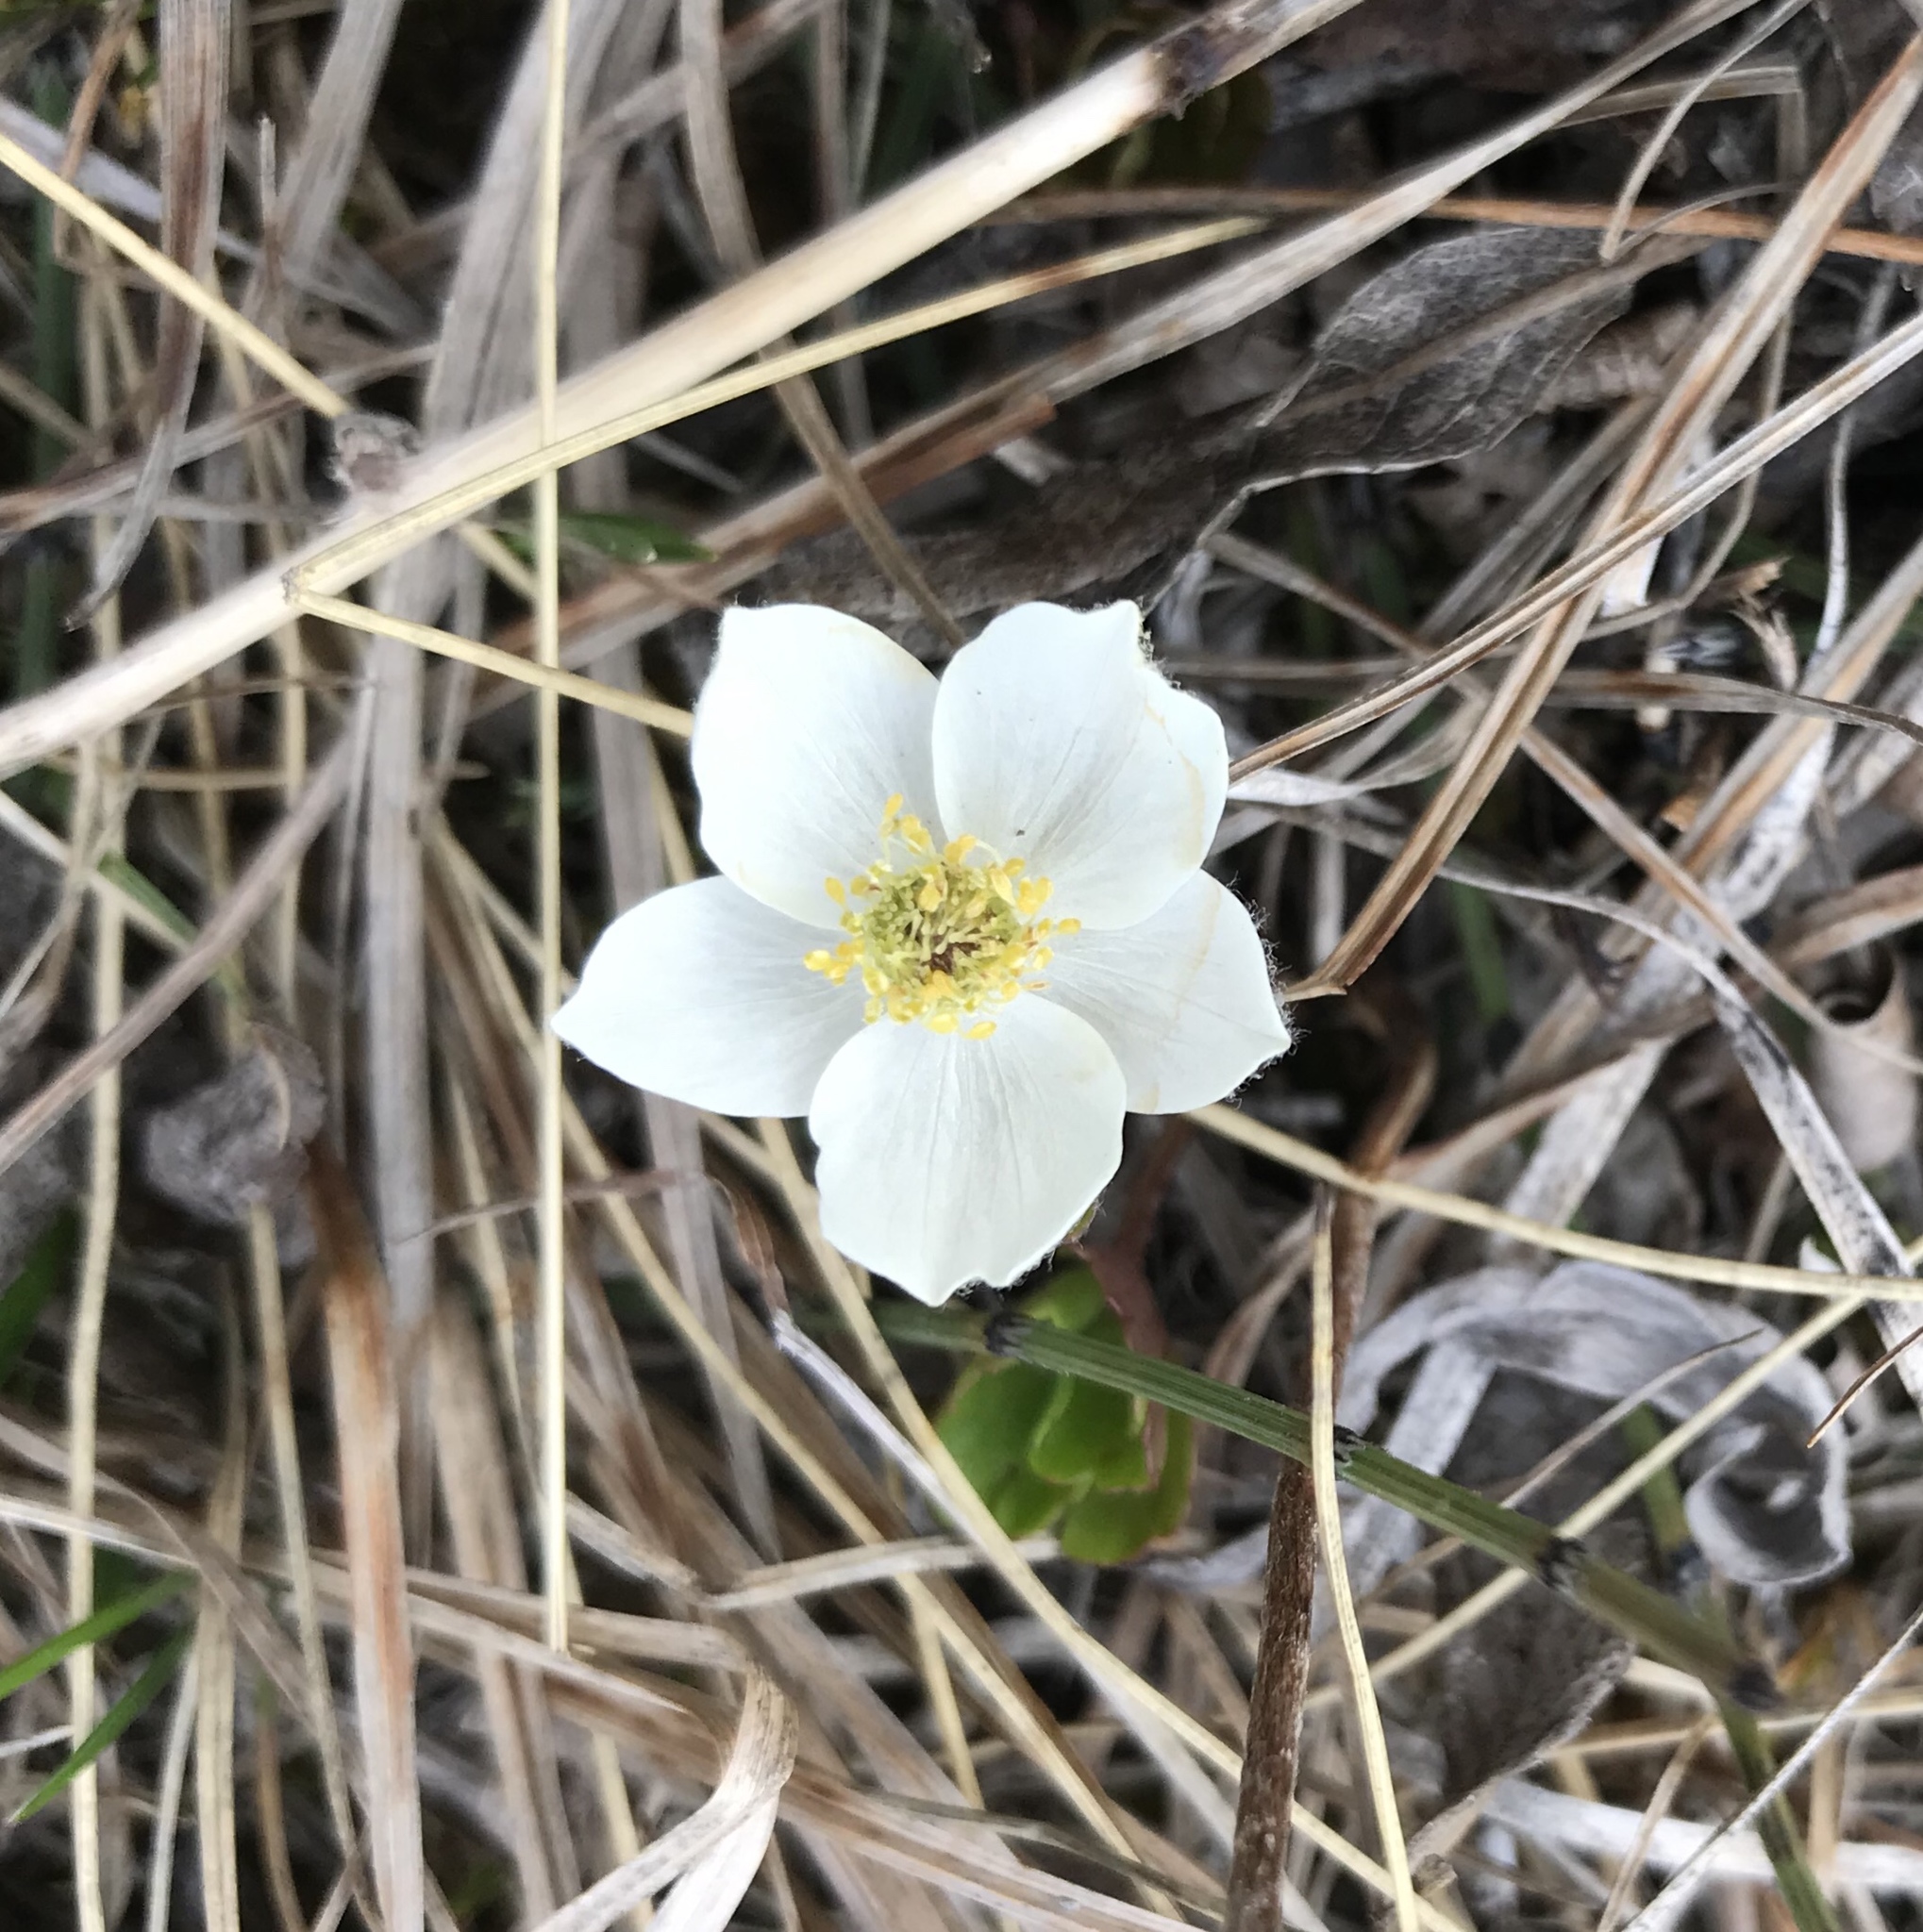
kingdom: Plantae
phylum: Tracheophyta
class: Magnoliopsida
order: Ranunculales
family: Ranunculaceae
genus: Anemone
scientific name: Anemone drummondii
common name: Drummond's anemone
